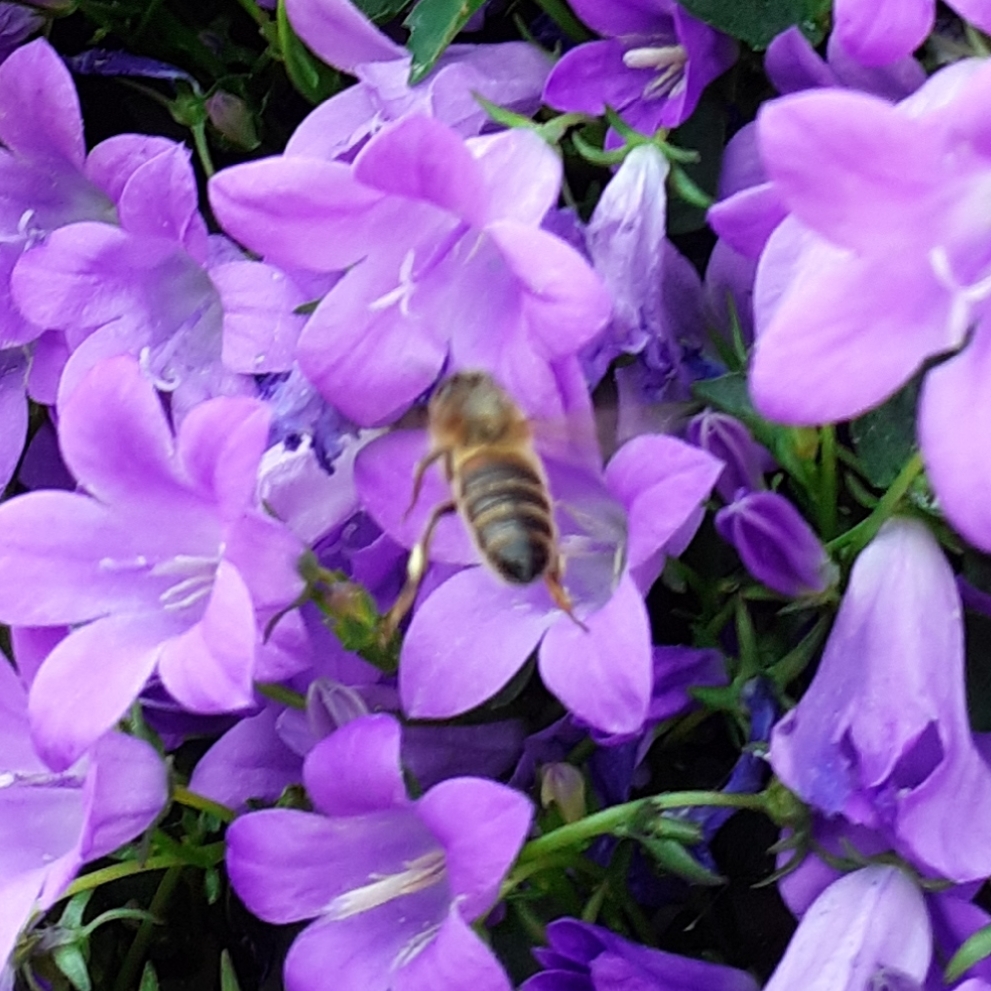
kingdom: Animalia
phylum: Arthropoda
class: Insecta
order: Hymenoptera
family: Apidae
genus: Apis
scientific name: Apis mellifera
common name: Honey bee
